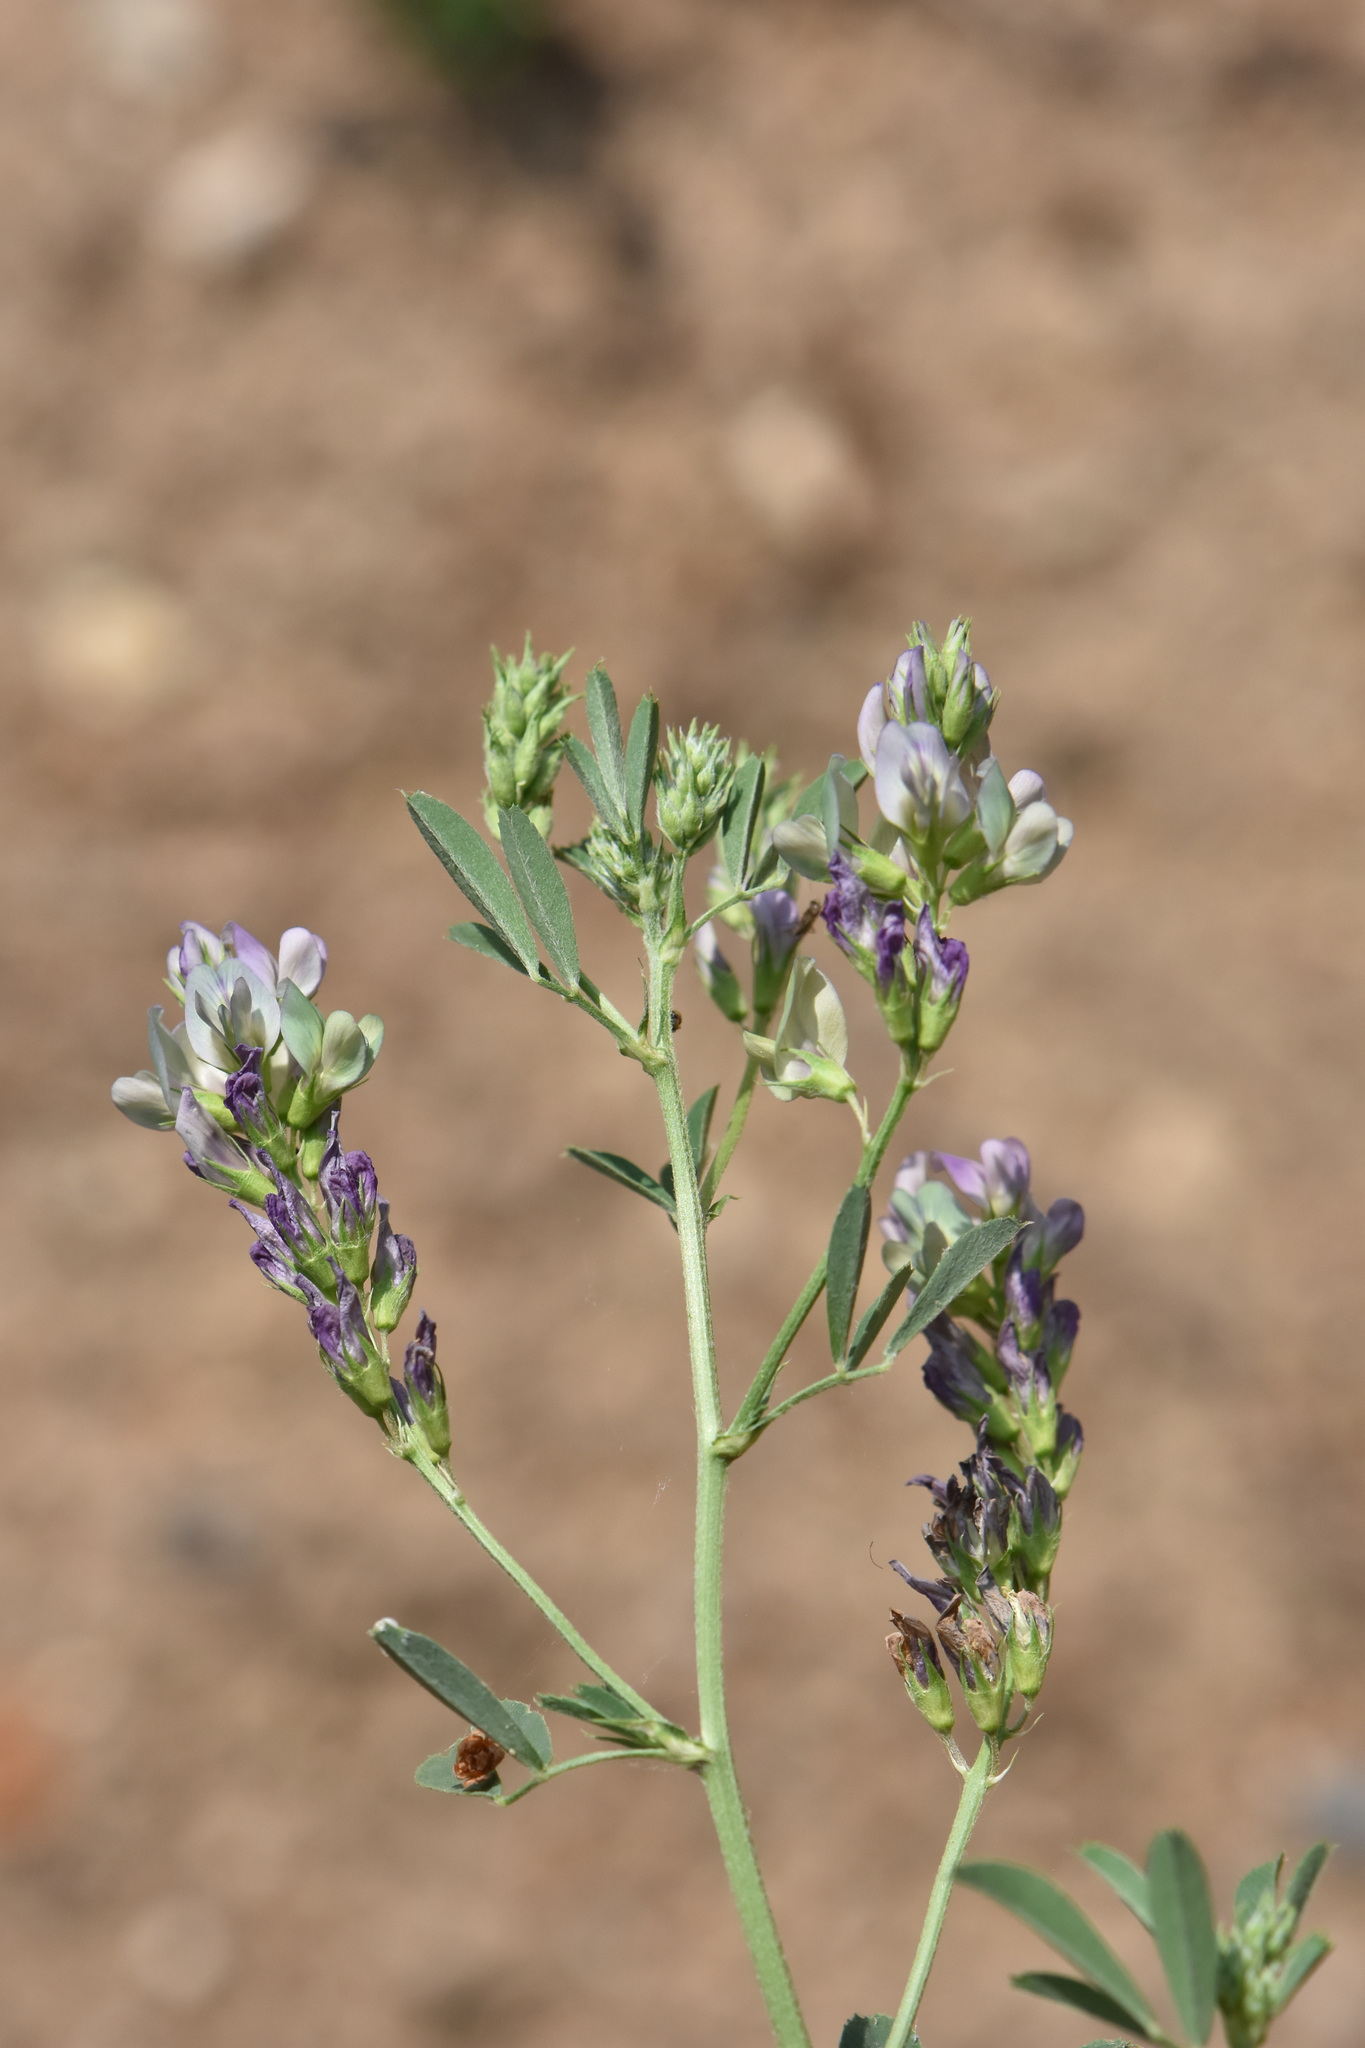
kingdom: Plantae
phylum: Tracheophyta
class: Magnoliopsida
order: Fabales
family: Fabaceae
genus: Medicago
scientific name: Medicago varia
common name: Sand lucerne
